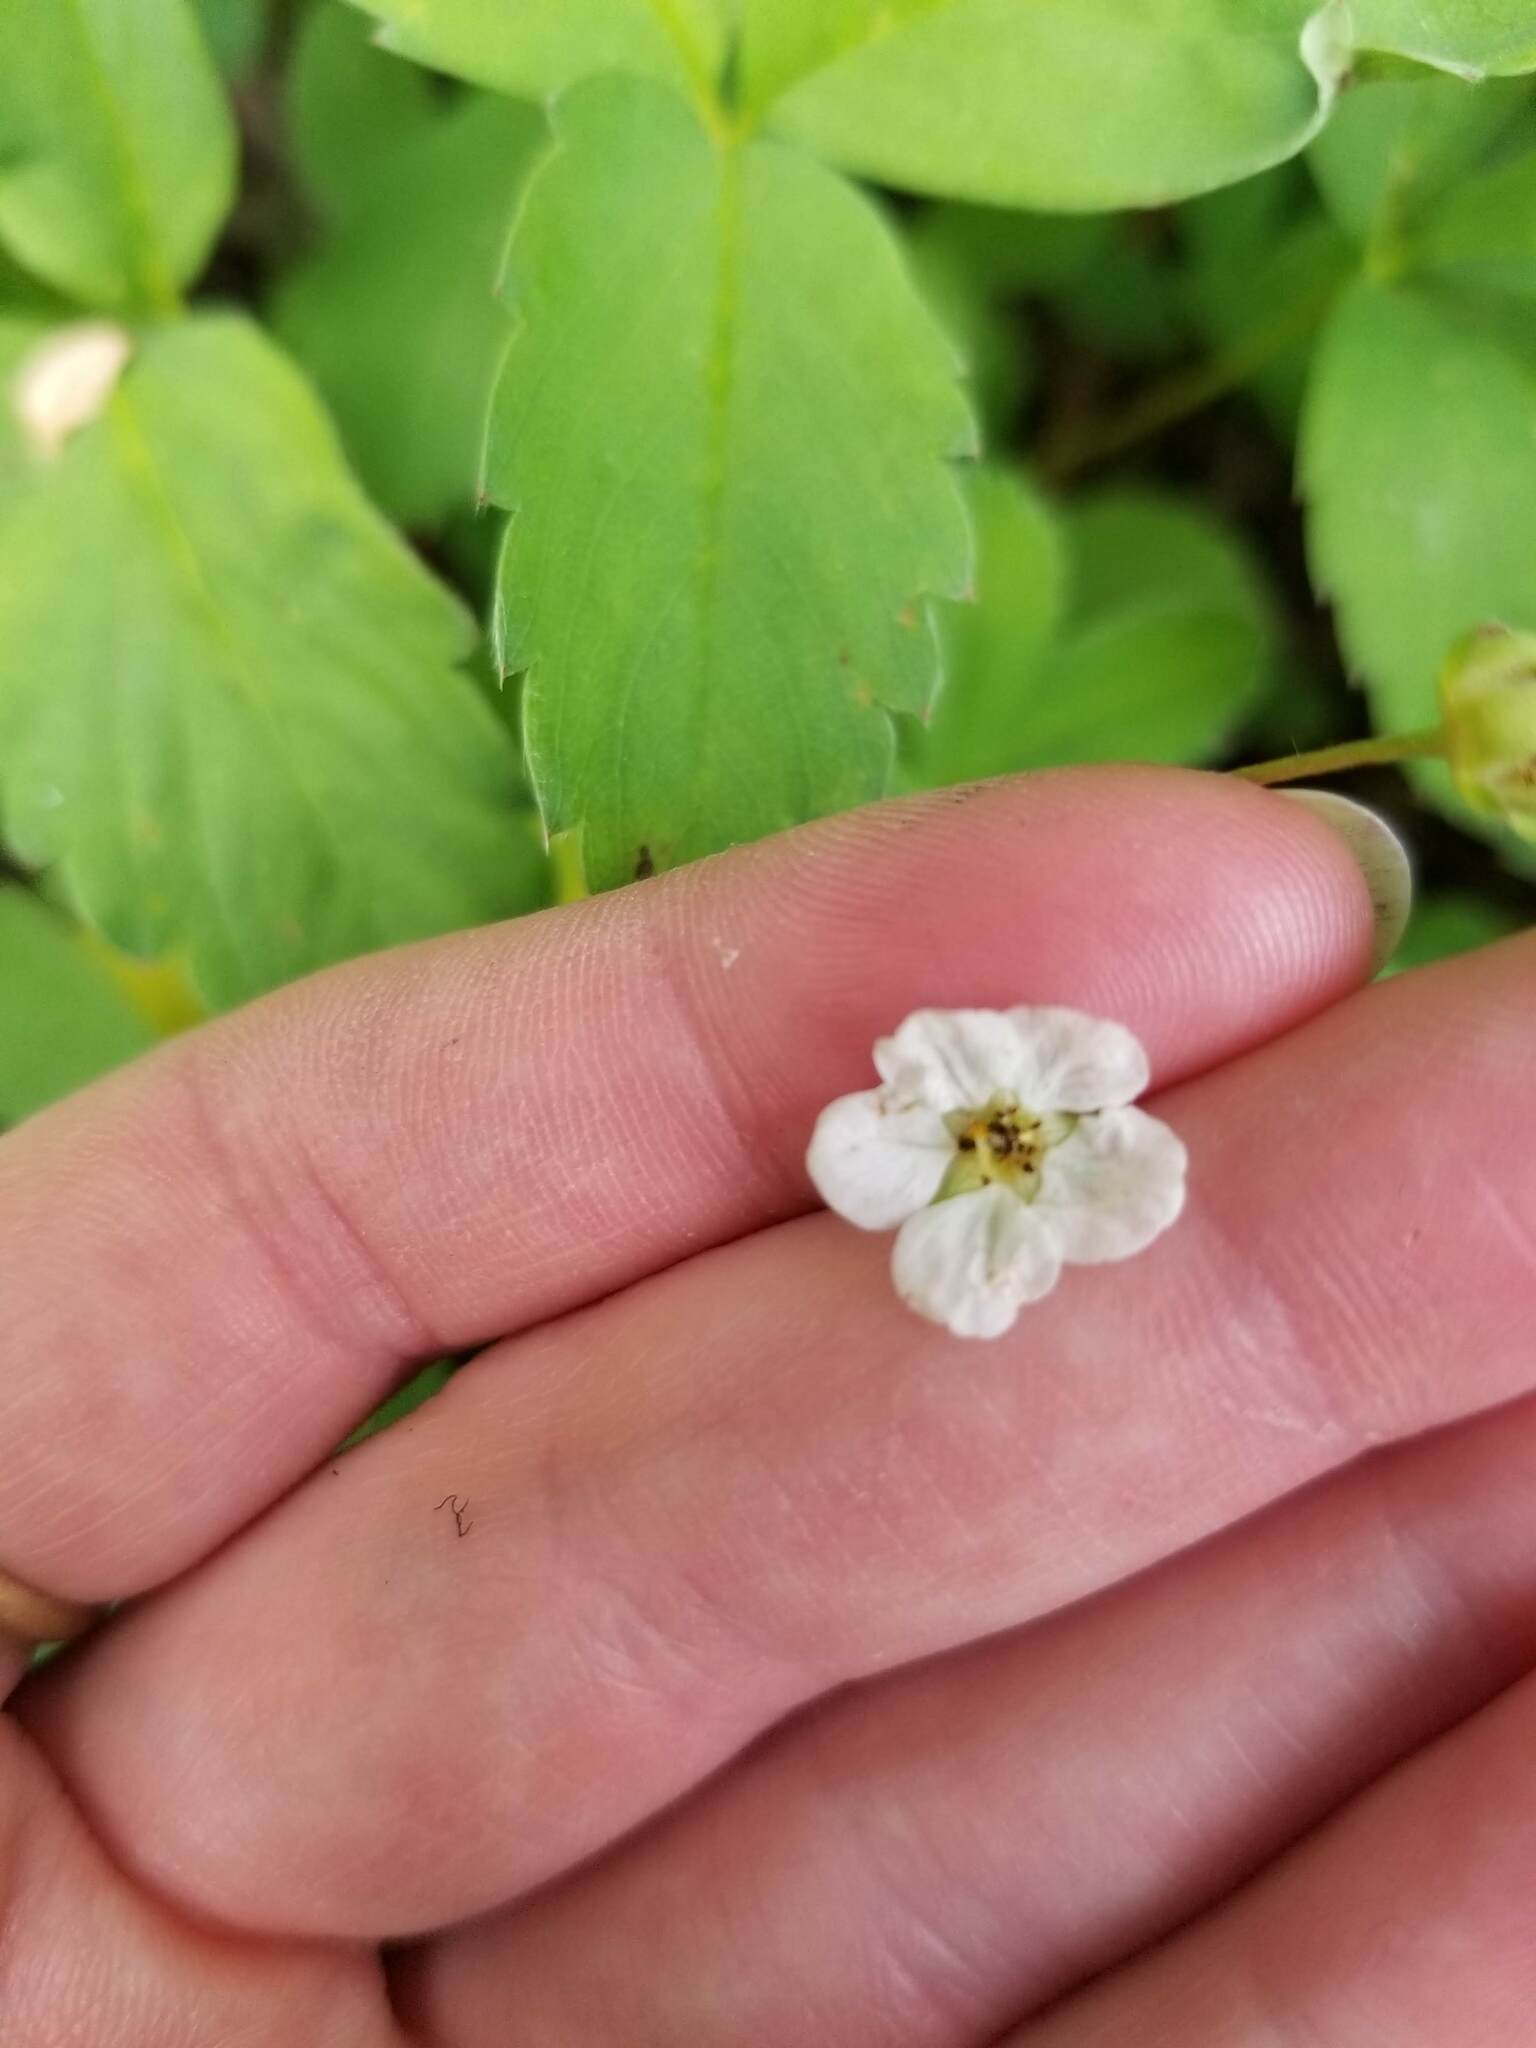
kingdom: Plantae
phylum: Tracheophyta
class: Magnoliopsida
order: Rosales
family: Rosaceae
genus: Fragaria
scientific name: Fragaria virginiana
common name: Thickleaved wild strawberry
